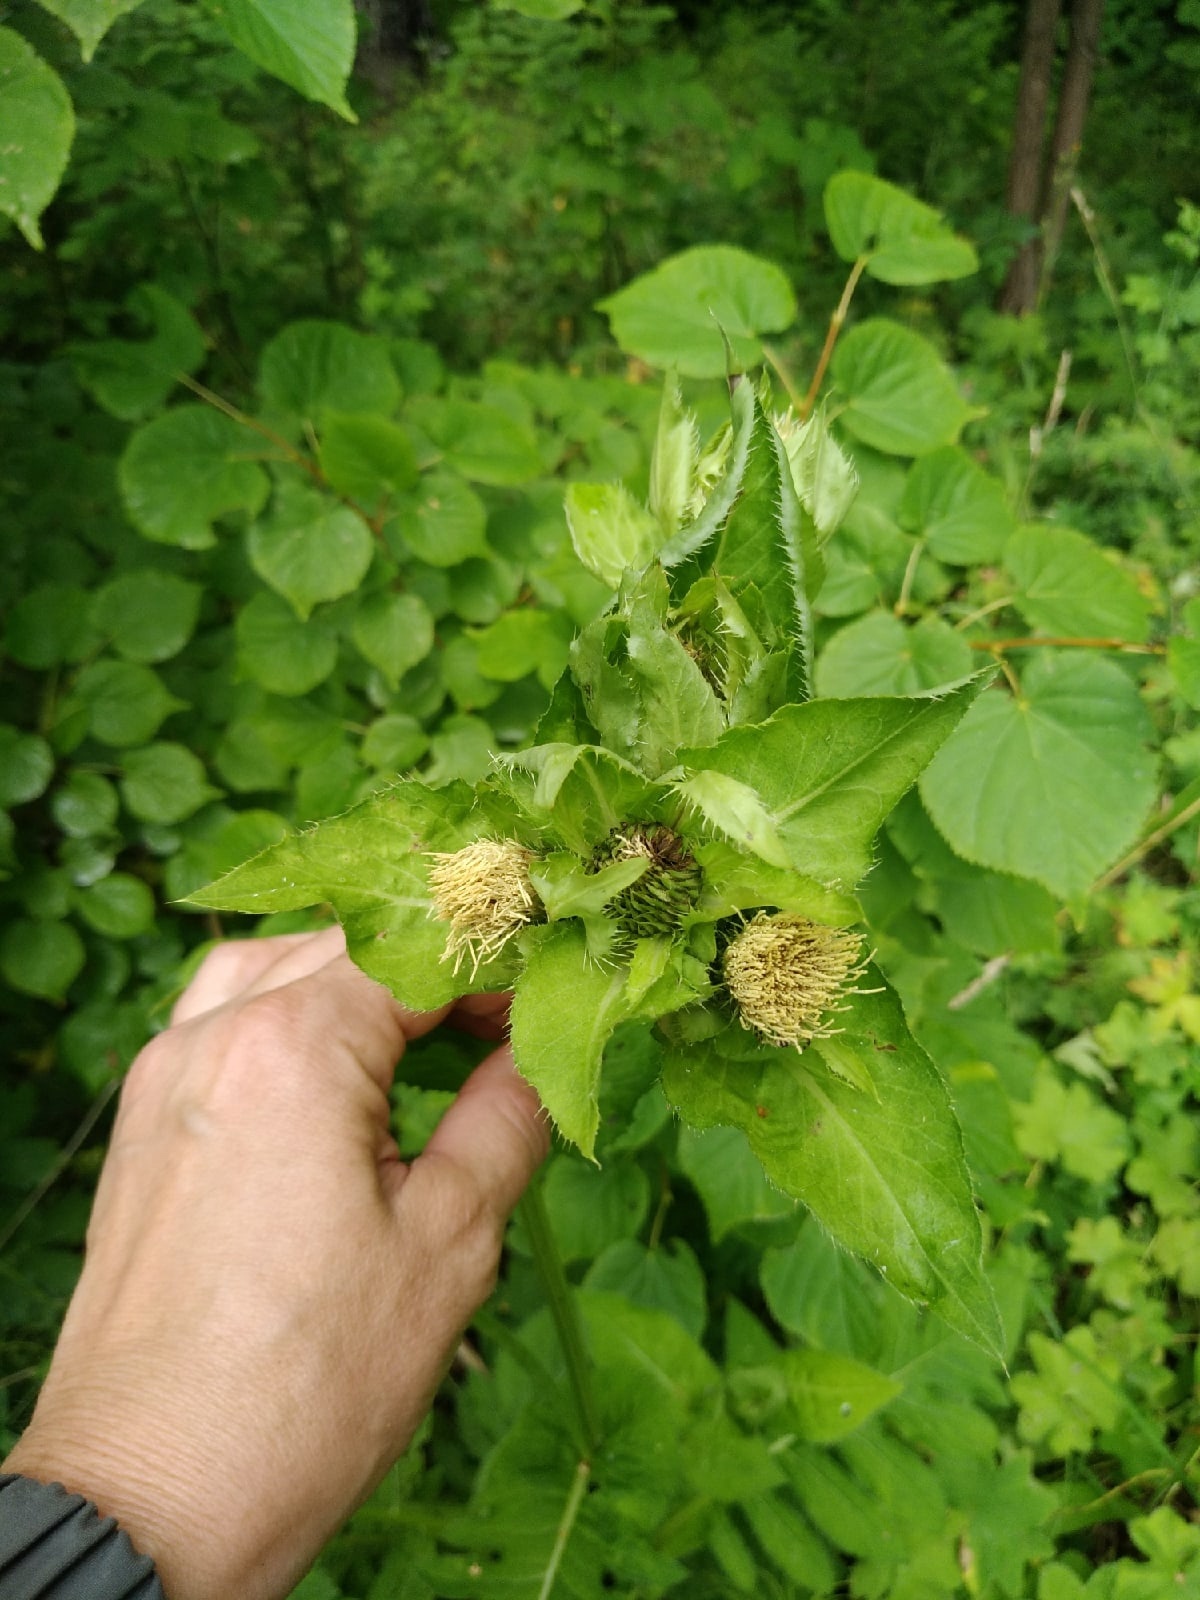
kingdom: Plantae
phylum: Tracheophyta
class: Magnoliopsida
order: Asterales
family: Asteraceae
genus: Cirsium
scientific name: Cirsium oleraceum
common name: Cabbage thistle
